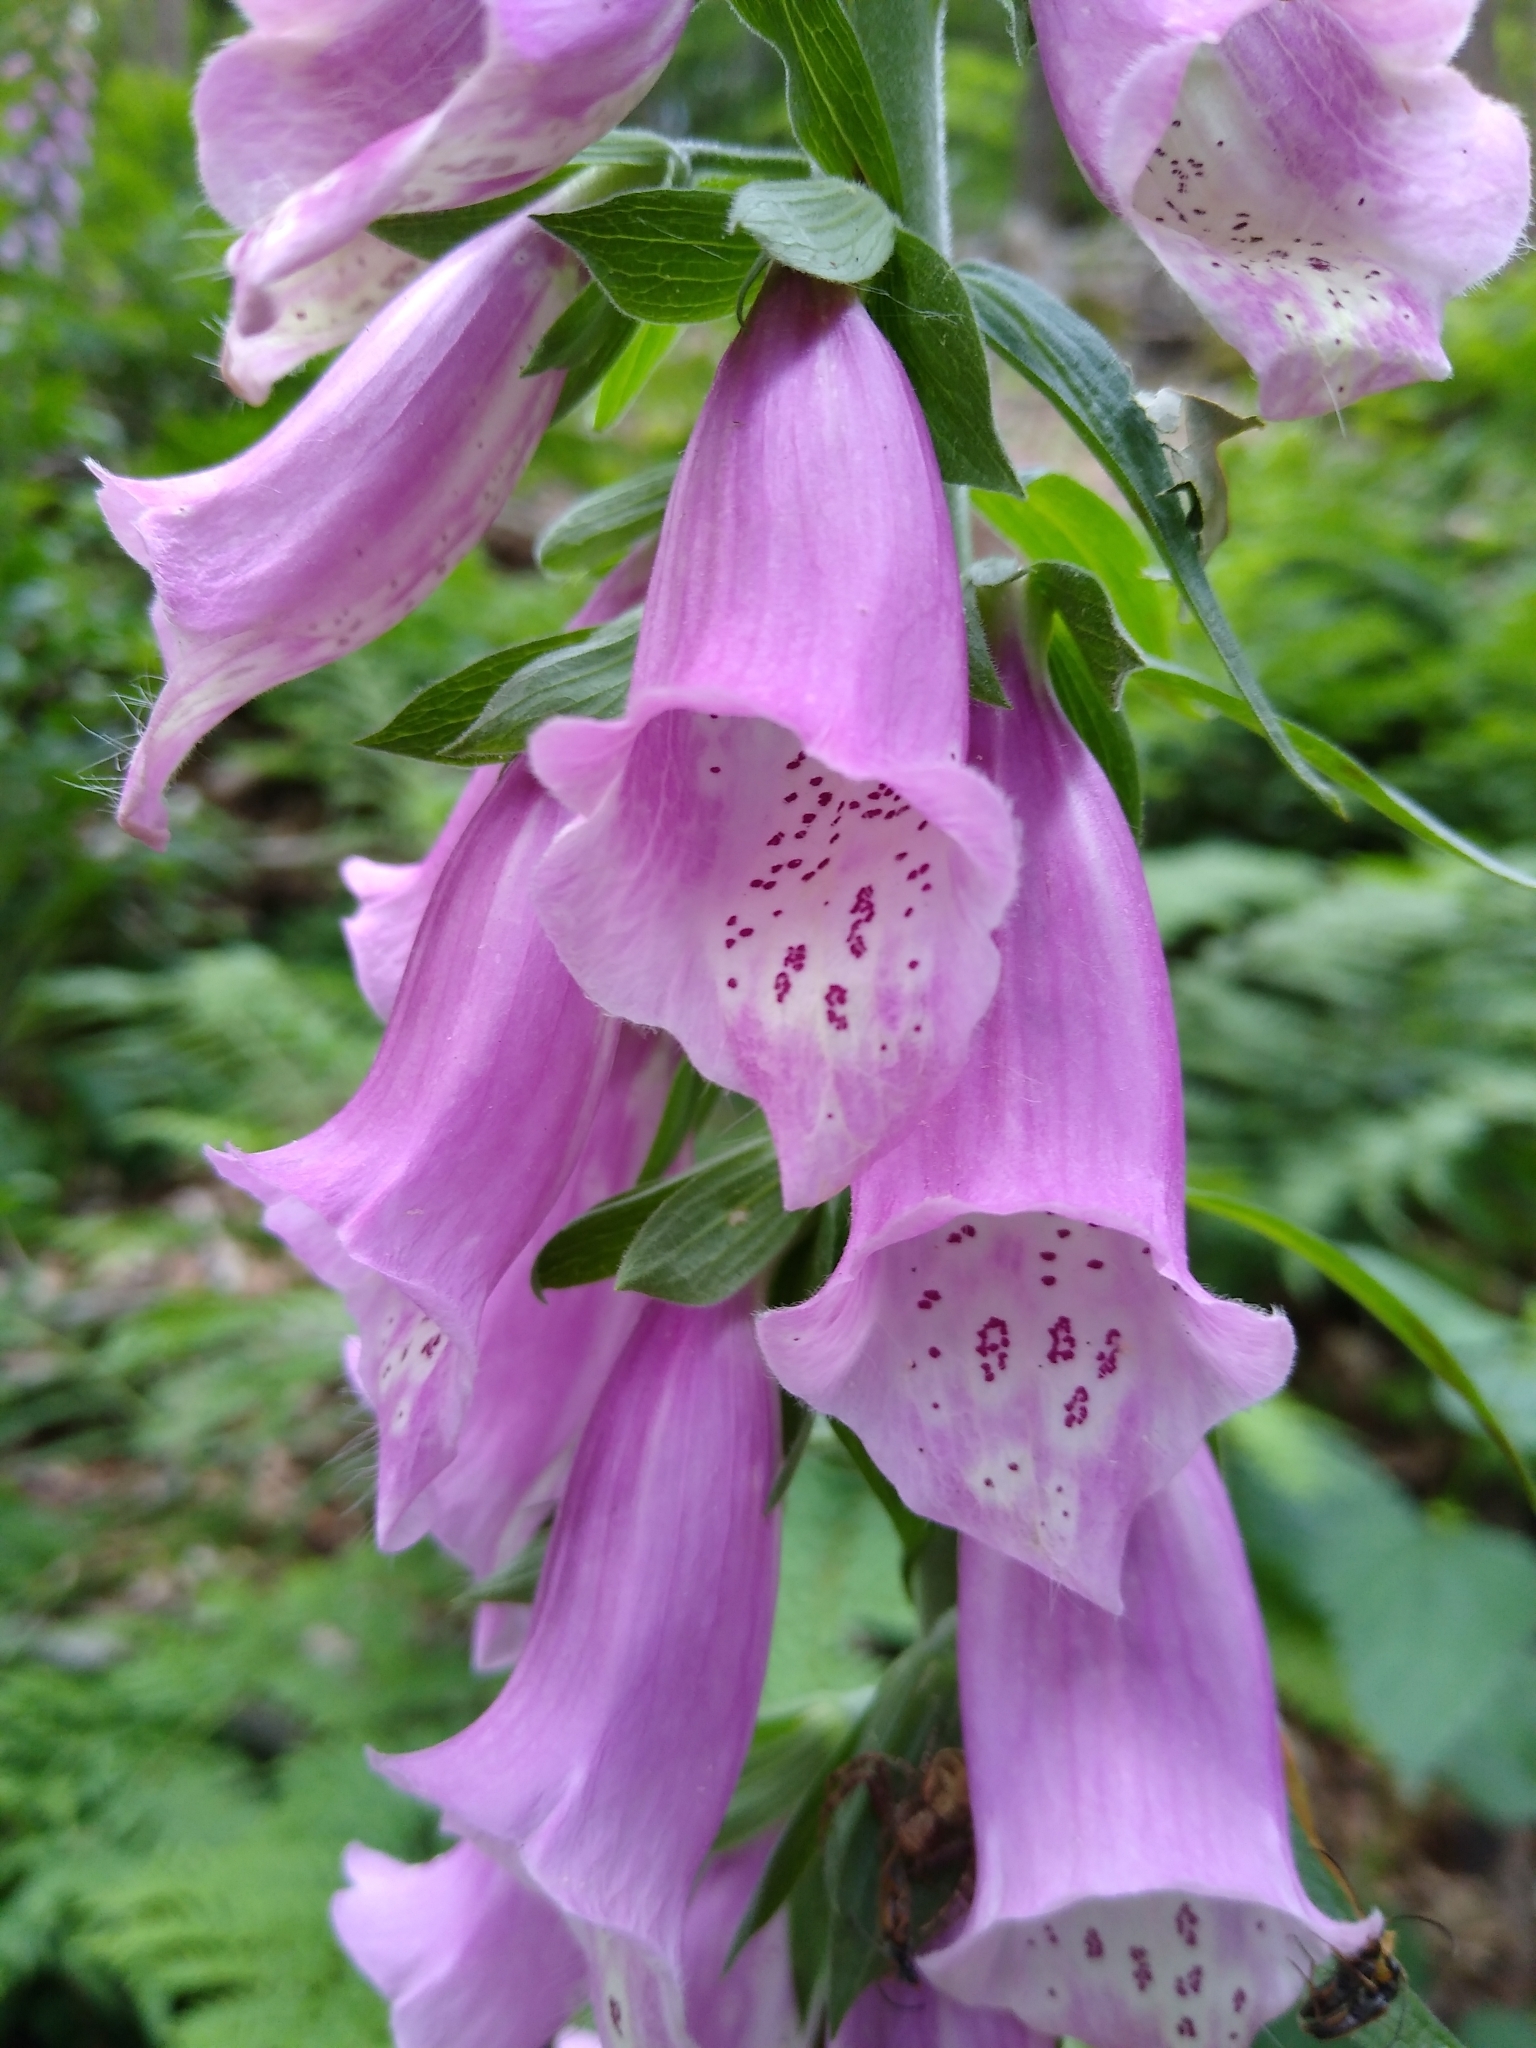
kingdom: Plantae
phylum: Tracheophyta
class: Magnoliopsida
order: Lamiales
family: Plantaginaceae
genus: Digitalis
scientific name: Digitalis purpurea
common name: Foxglove
